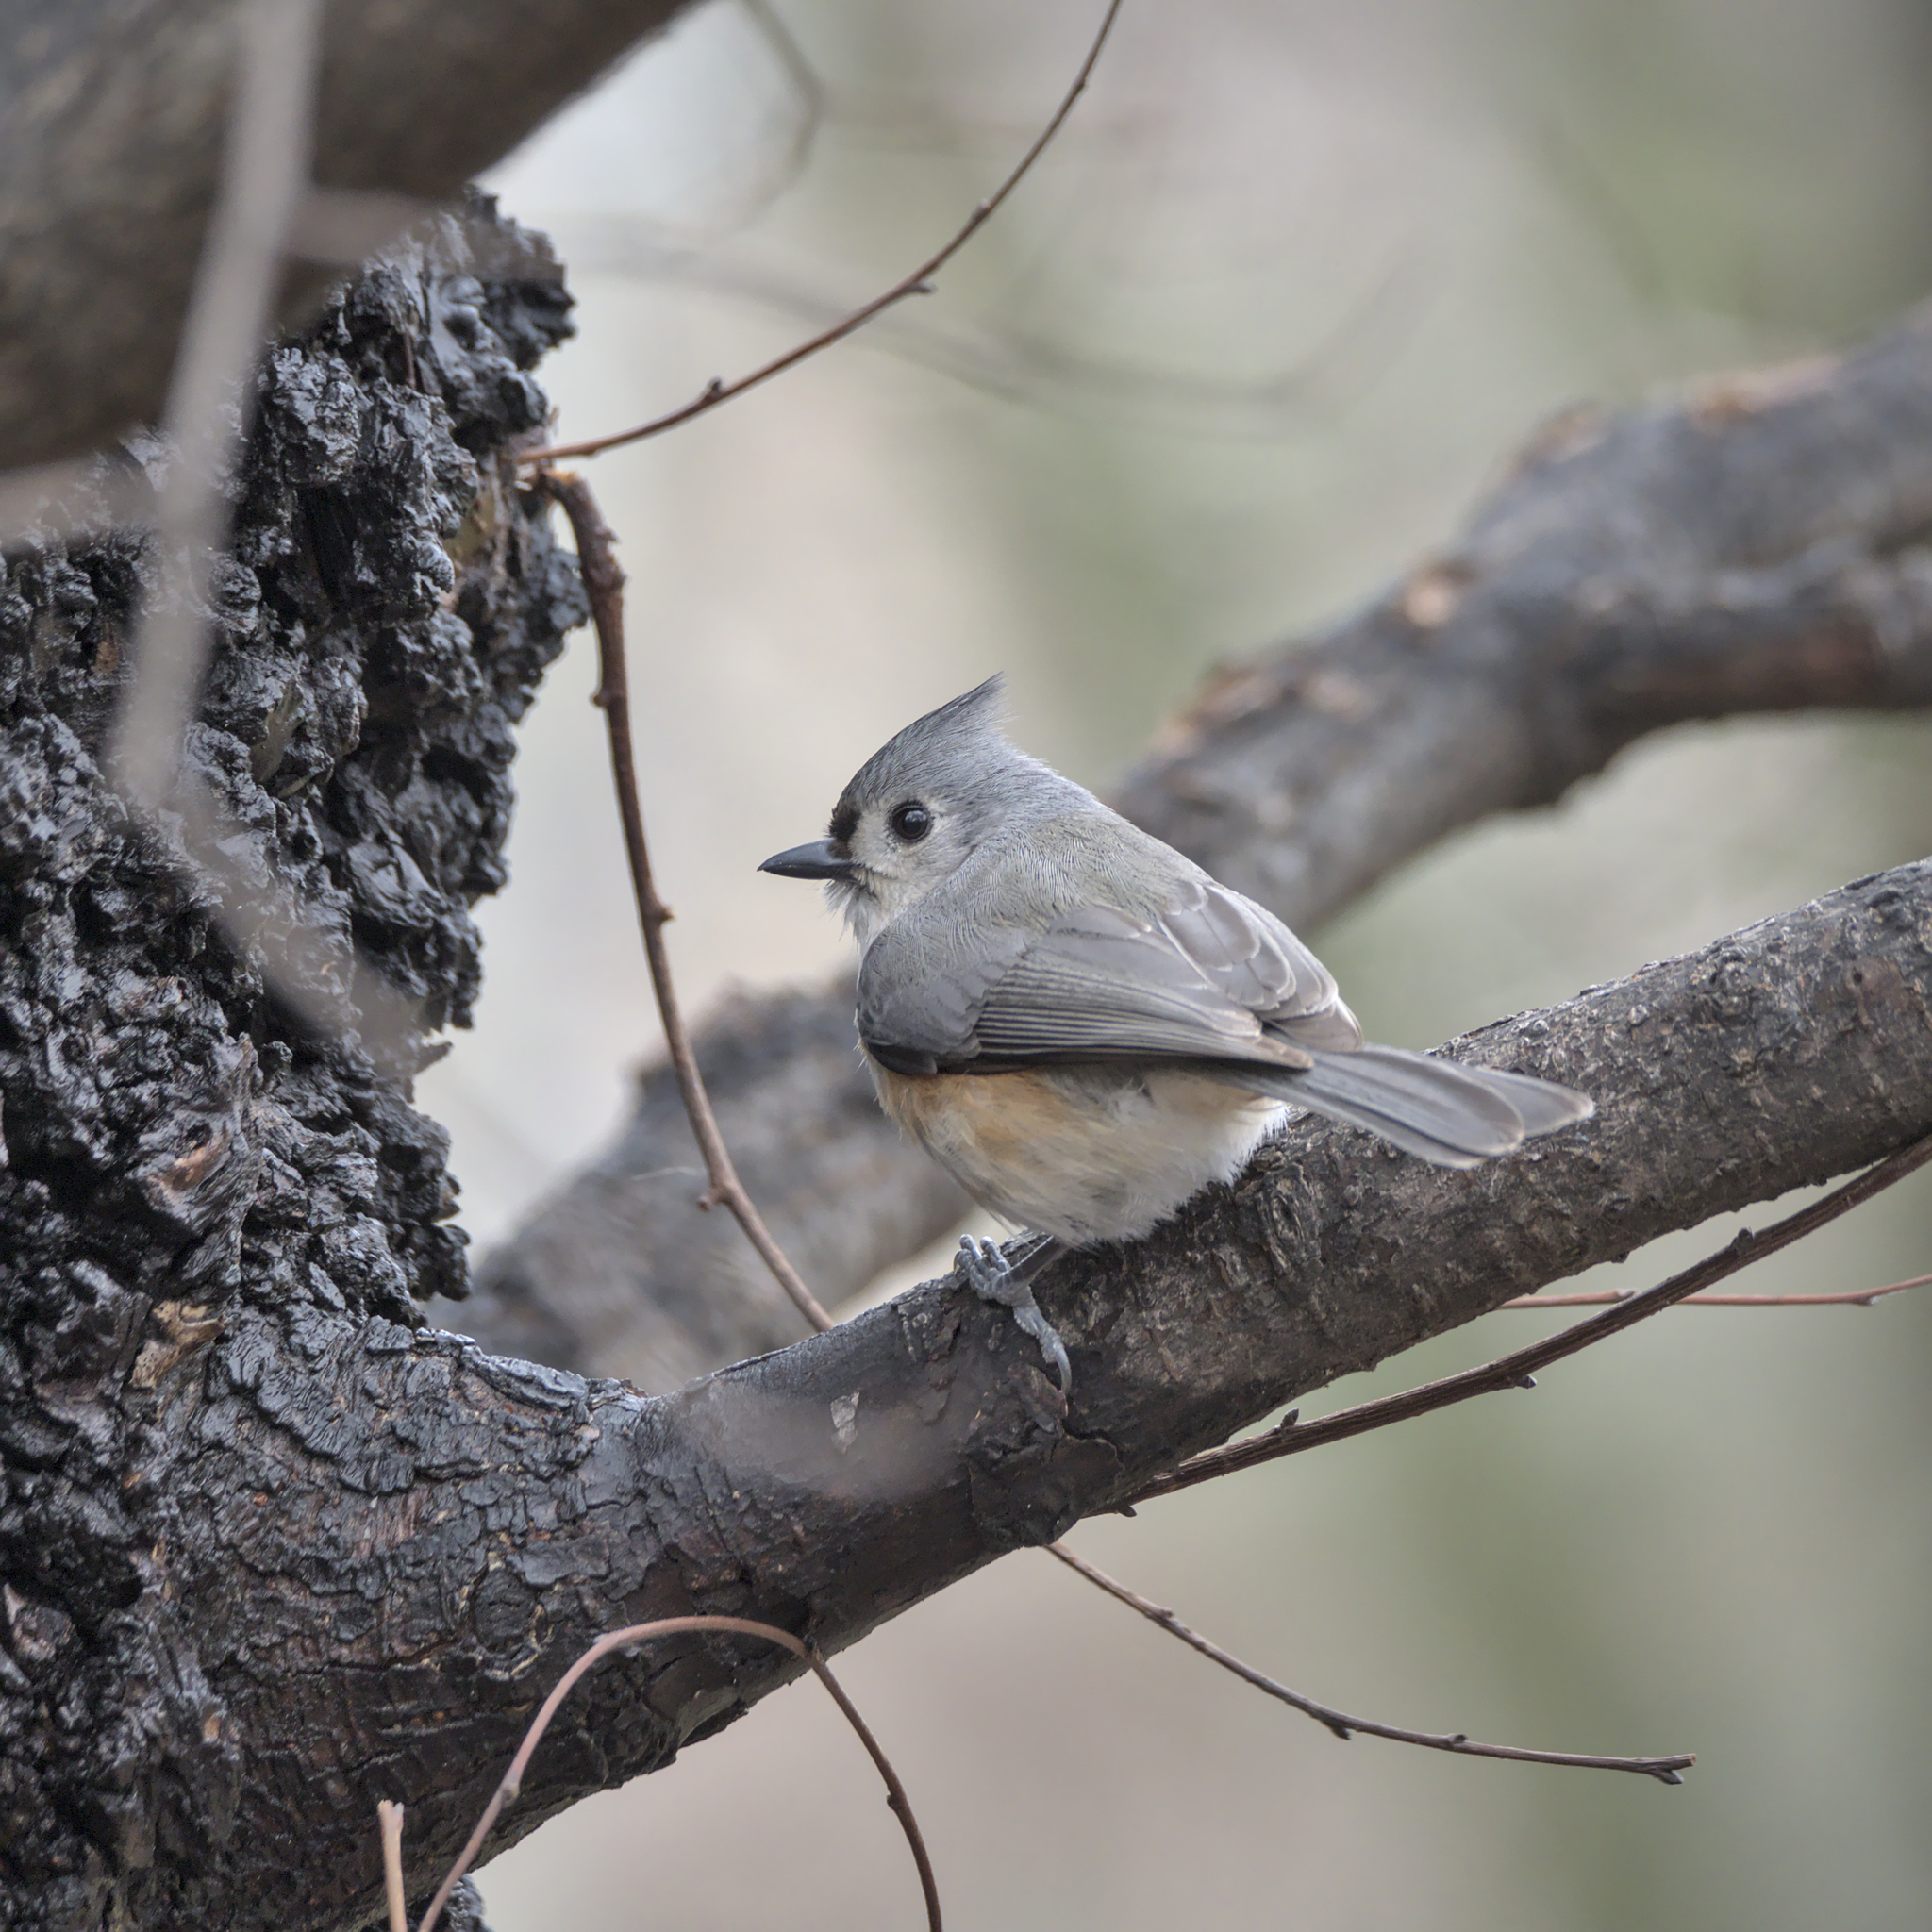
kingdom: Animalia
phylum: Chordata
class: Aves
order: Passeriformes
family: Paridae
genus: Baeolophus
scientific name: Baeolophus bicolor
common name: Tufted titmouse
